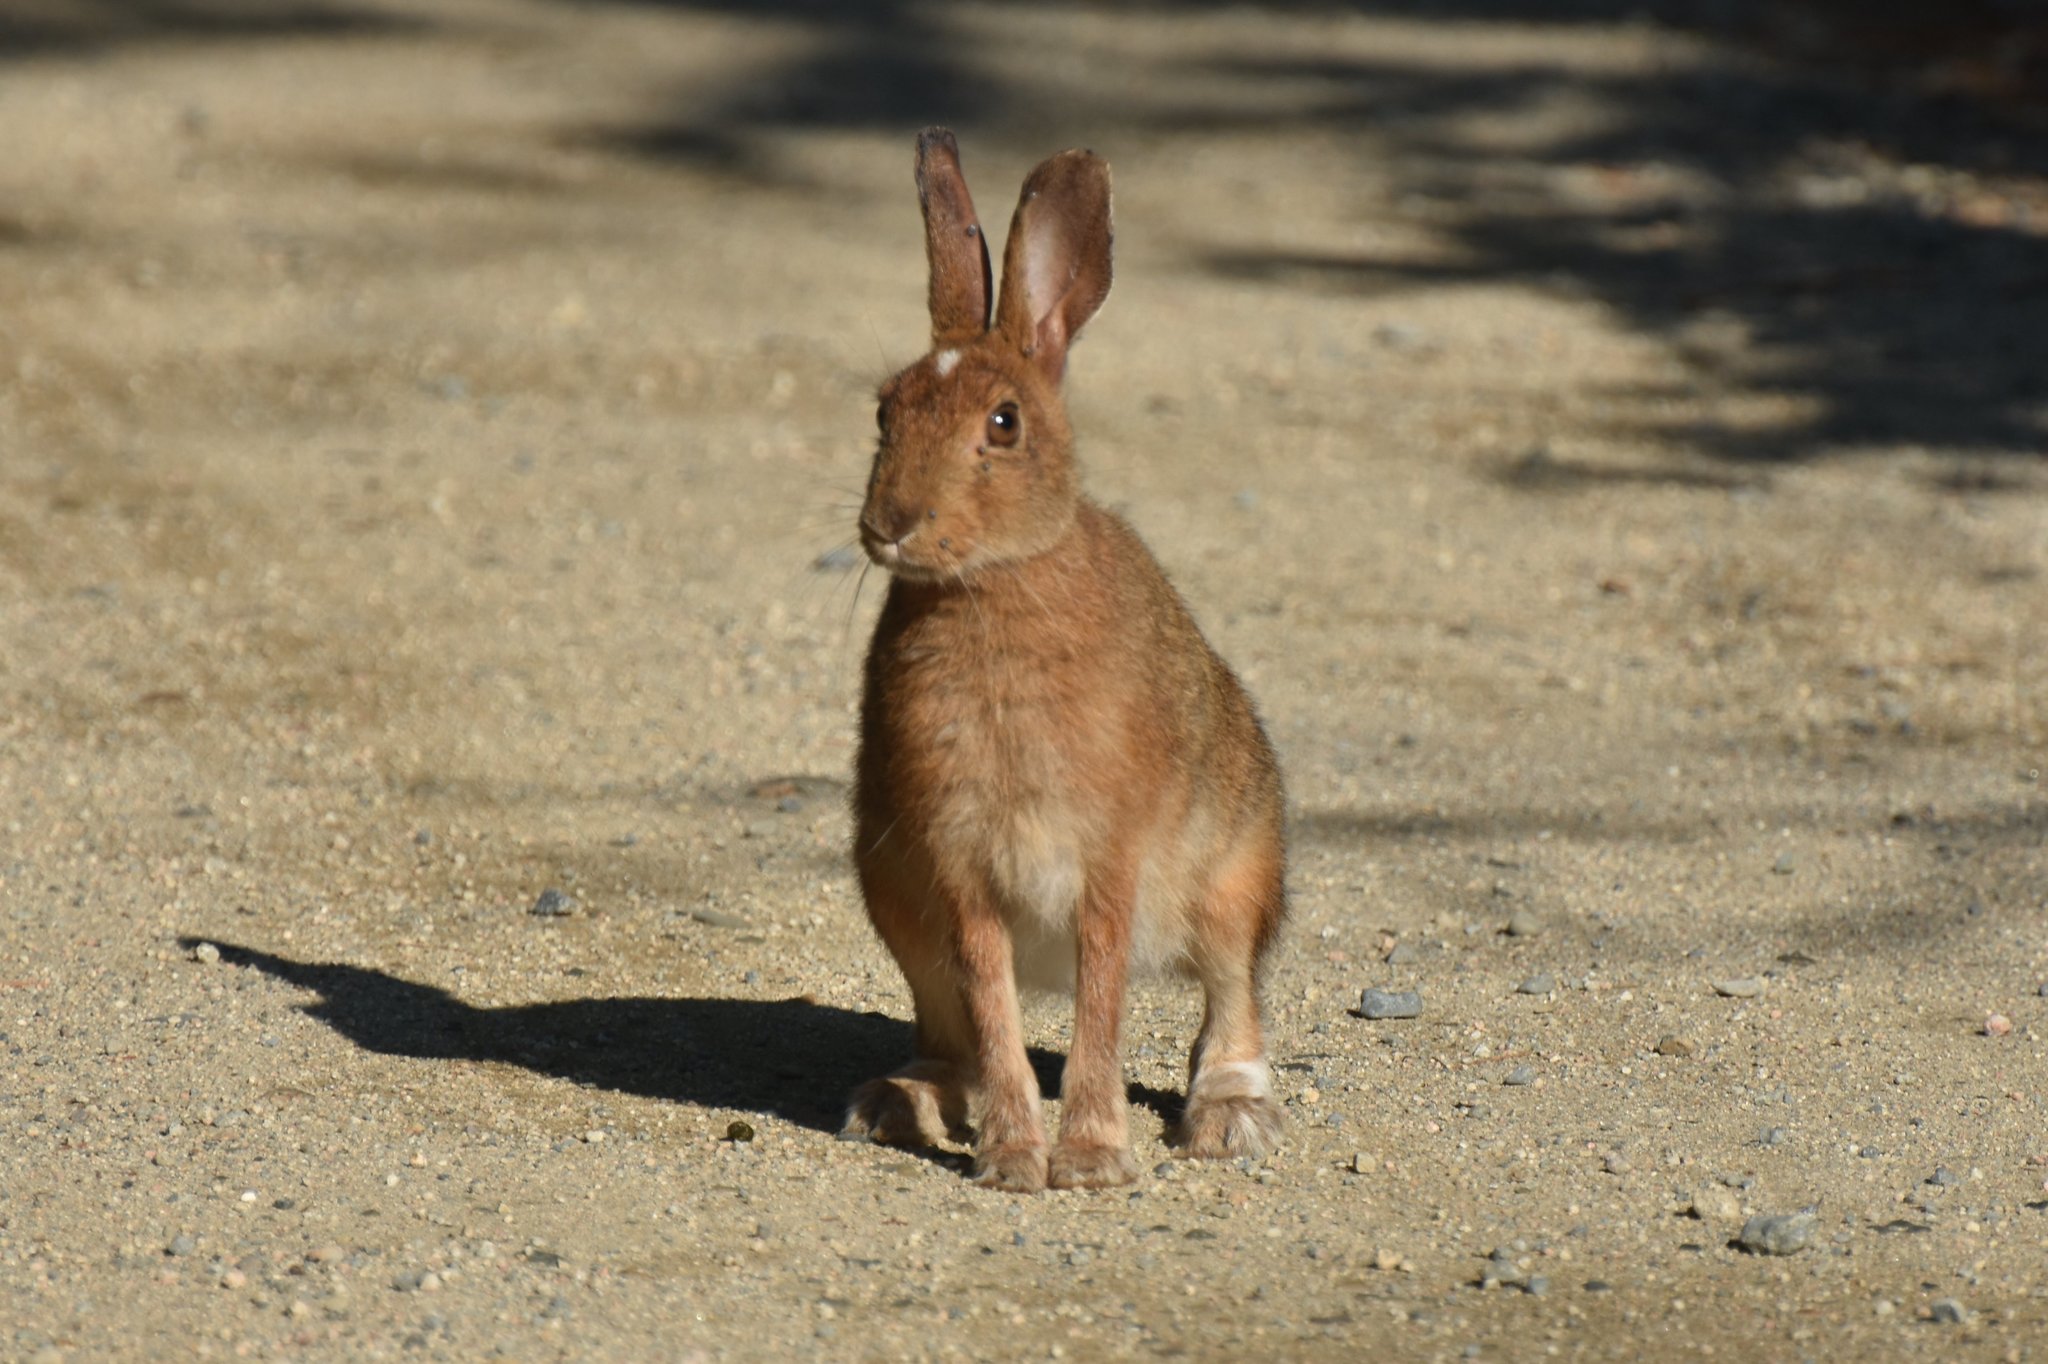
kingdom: Animalia
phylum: Chordata
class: Mammalia
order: Lagomorpha
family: Leporidae
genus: Lepus
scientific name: Lepus americanus
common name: Snowshoe hare
